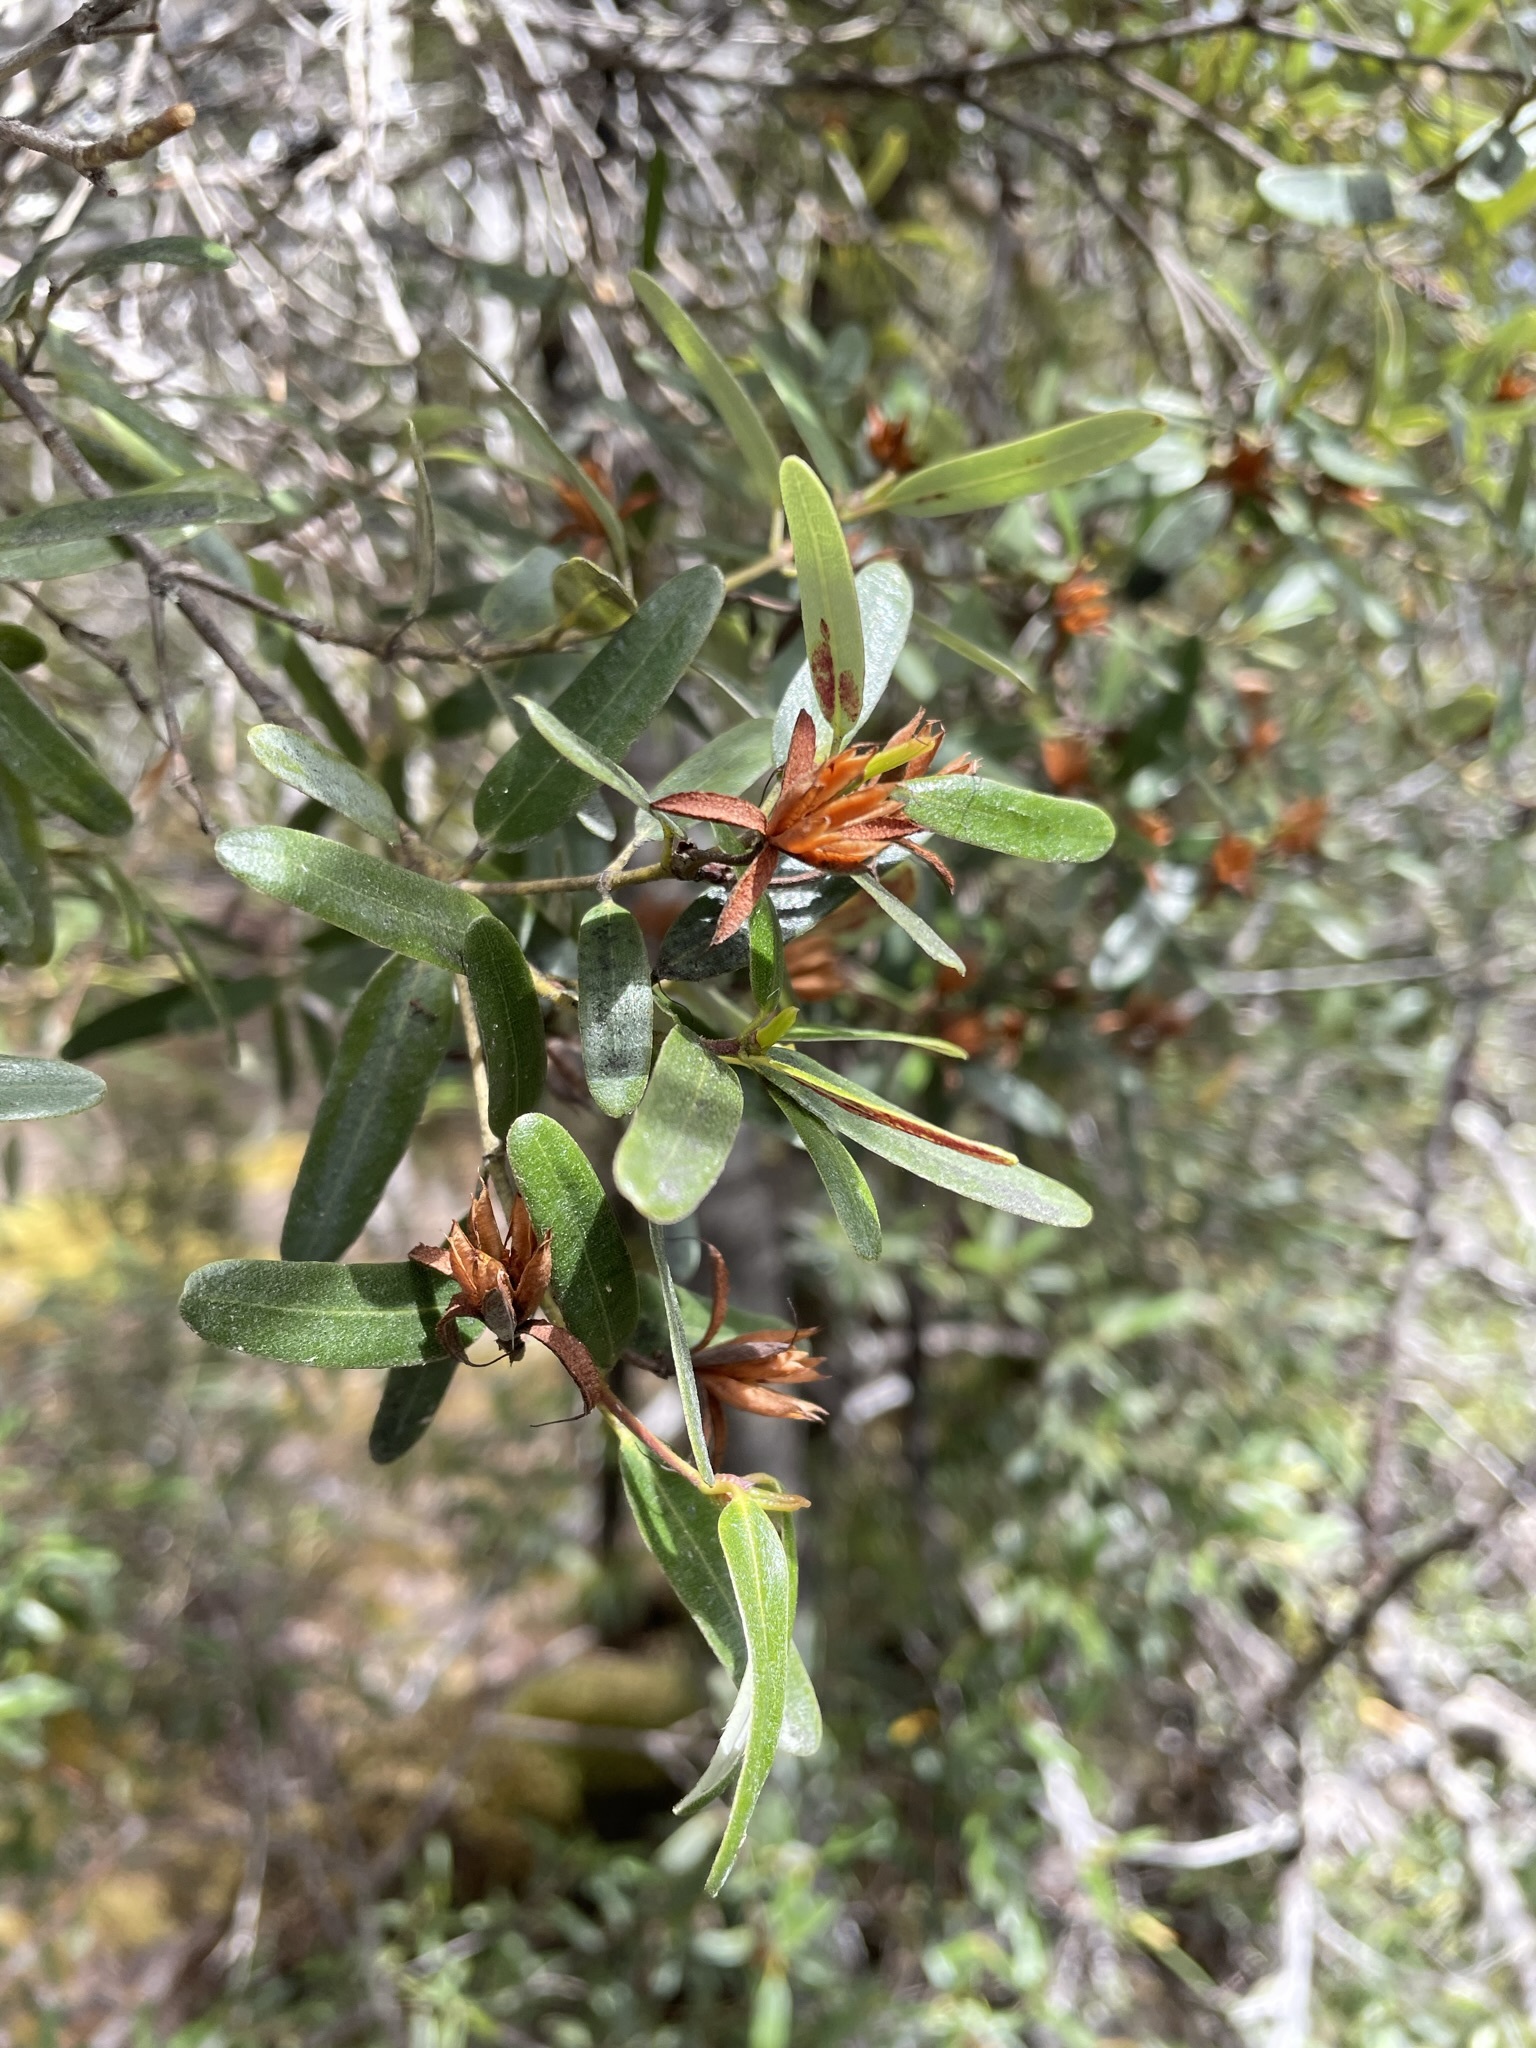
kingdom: Plantae
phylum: Tracheophyta
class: Magnoliopsida
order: Oxalidales
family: Cunoniaceae
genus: Eucryphia
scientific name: Eucryphia lucida
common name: Leatherwood
